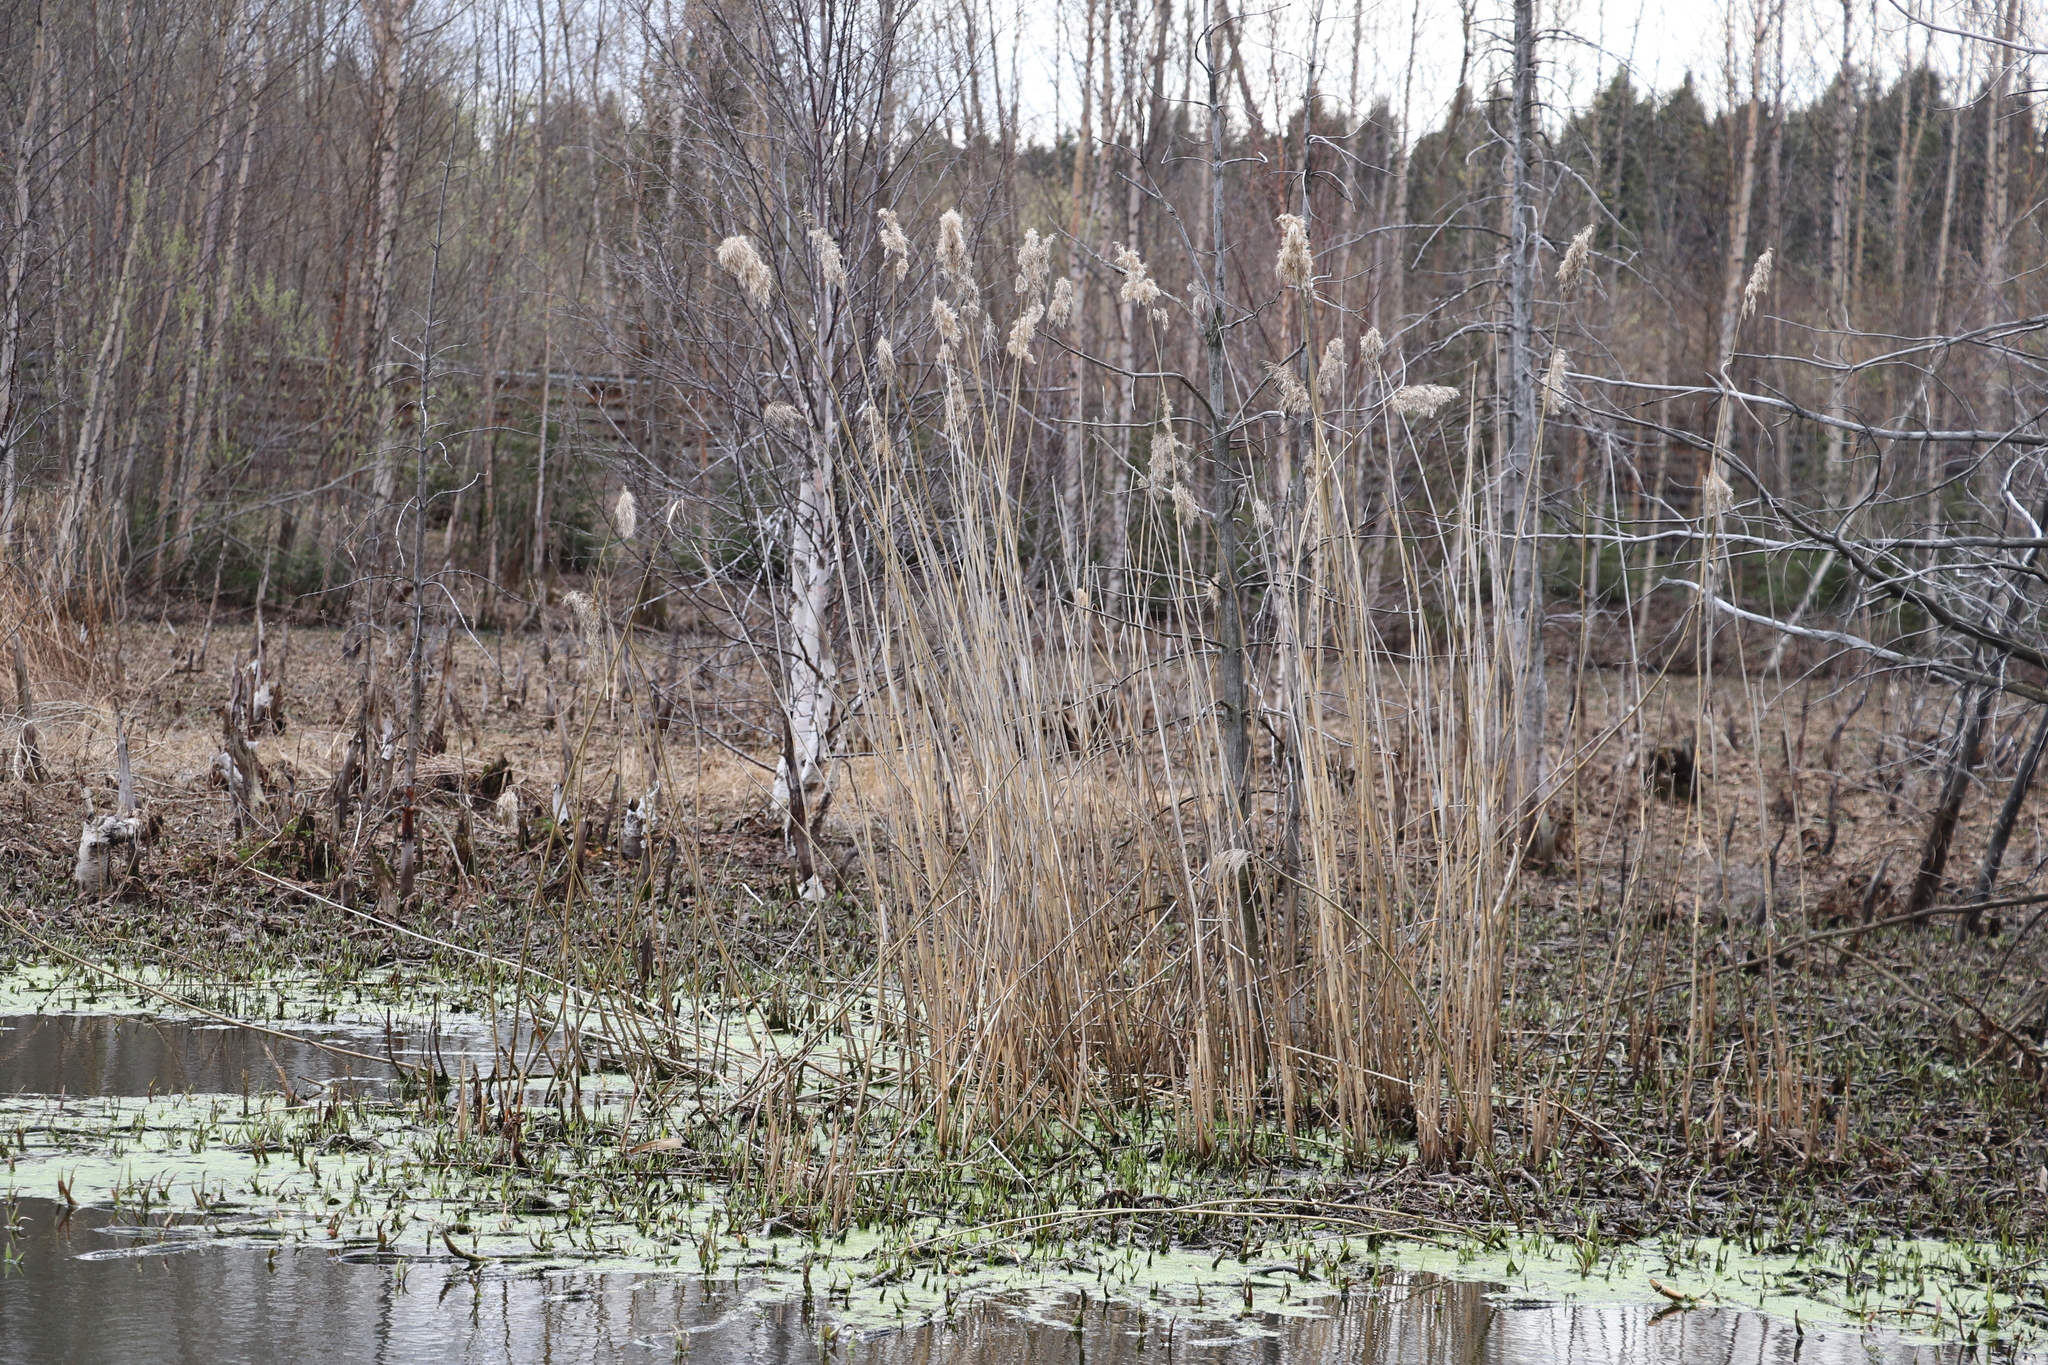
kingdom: Plantae
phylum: Tracheophyta
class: Liliopsida
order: Poales
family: Poaceae
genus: Phragmites
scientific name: Phragmites australis
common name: Common reed
